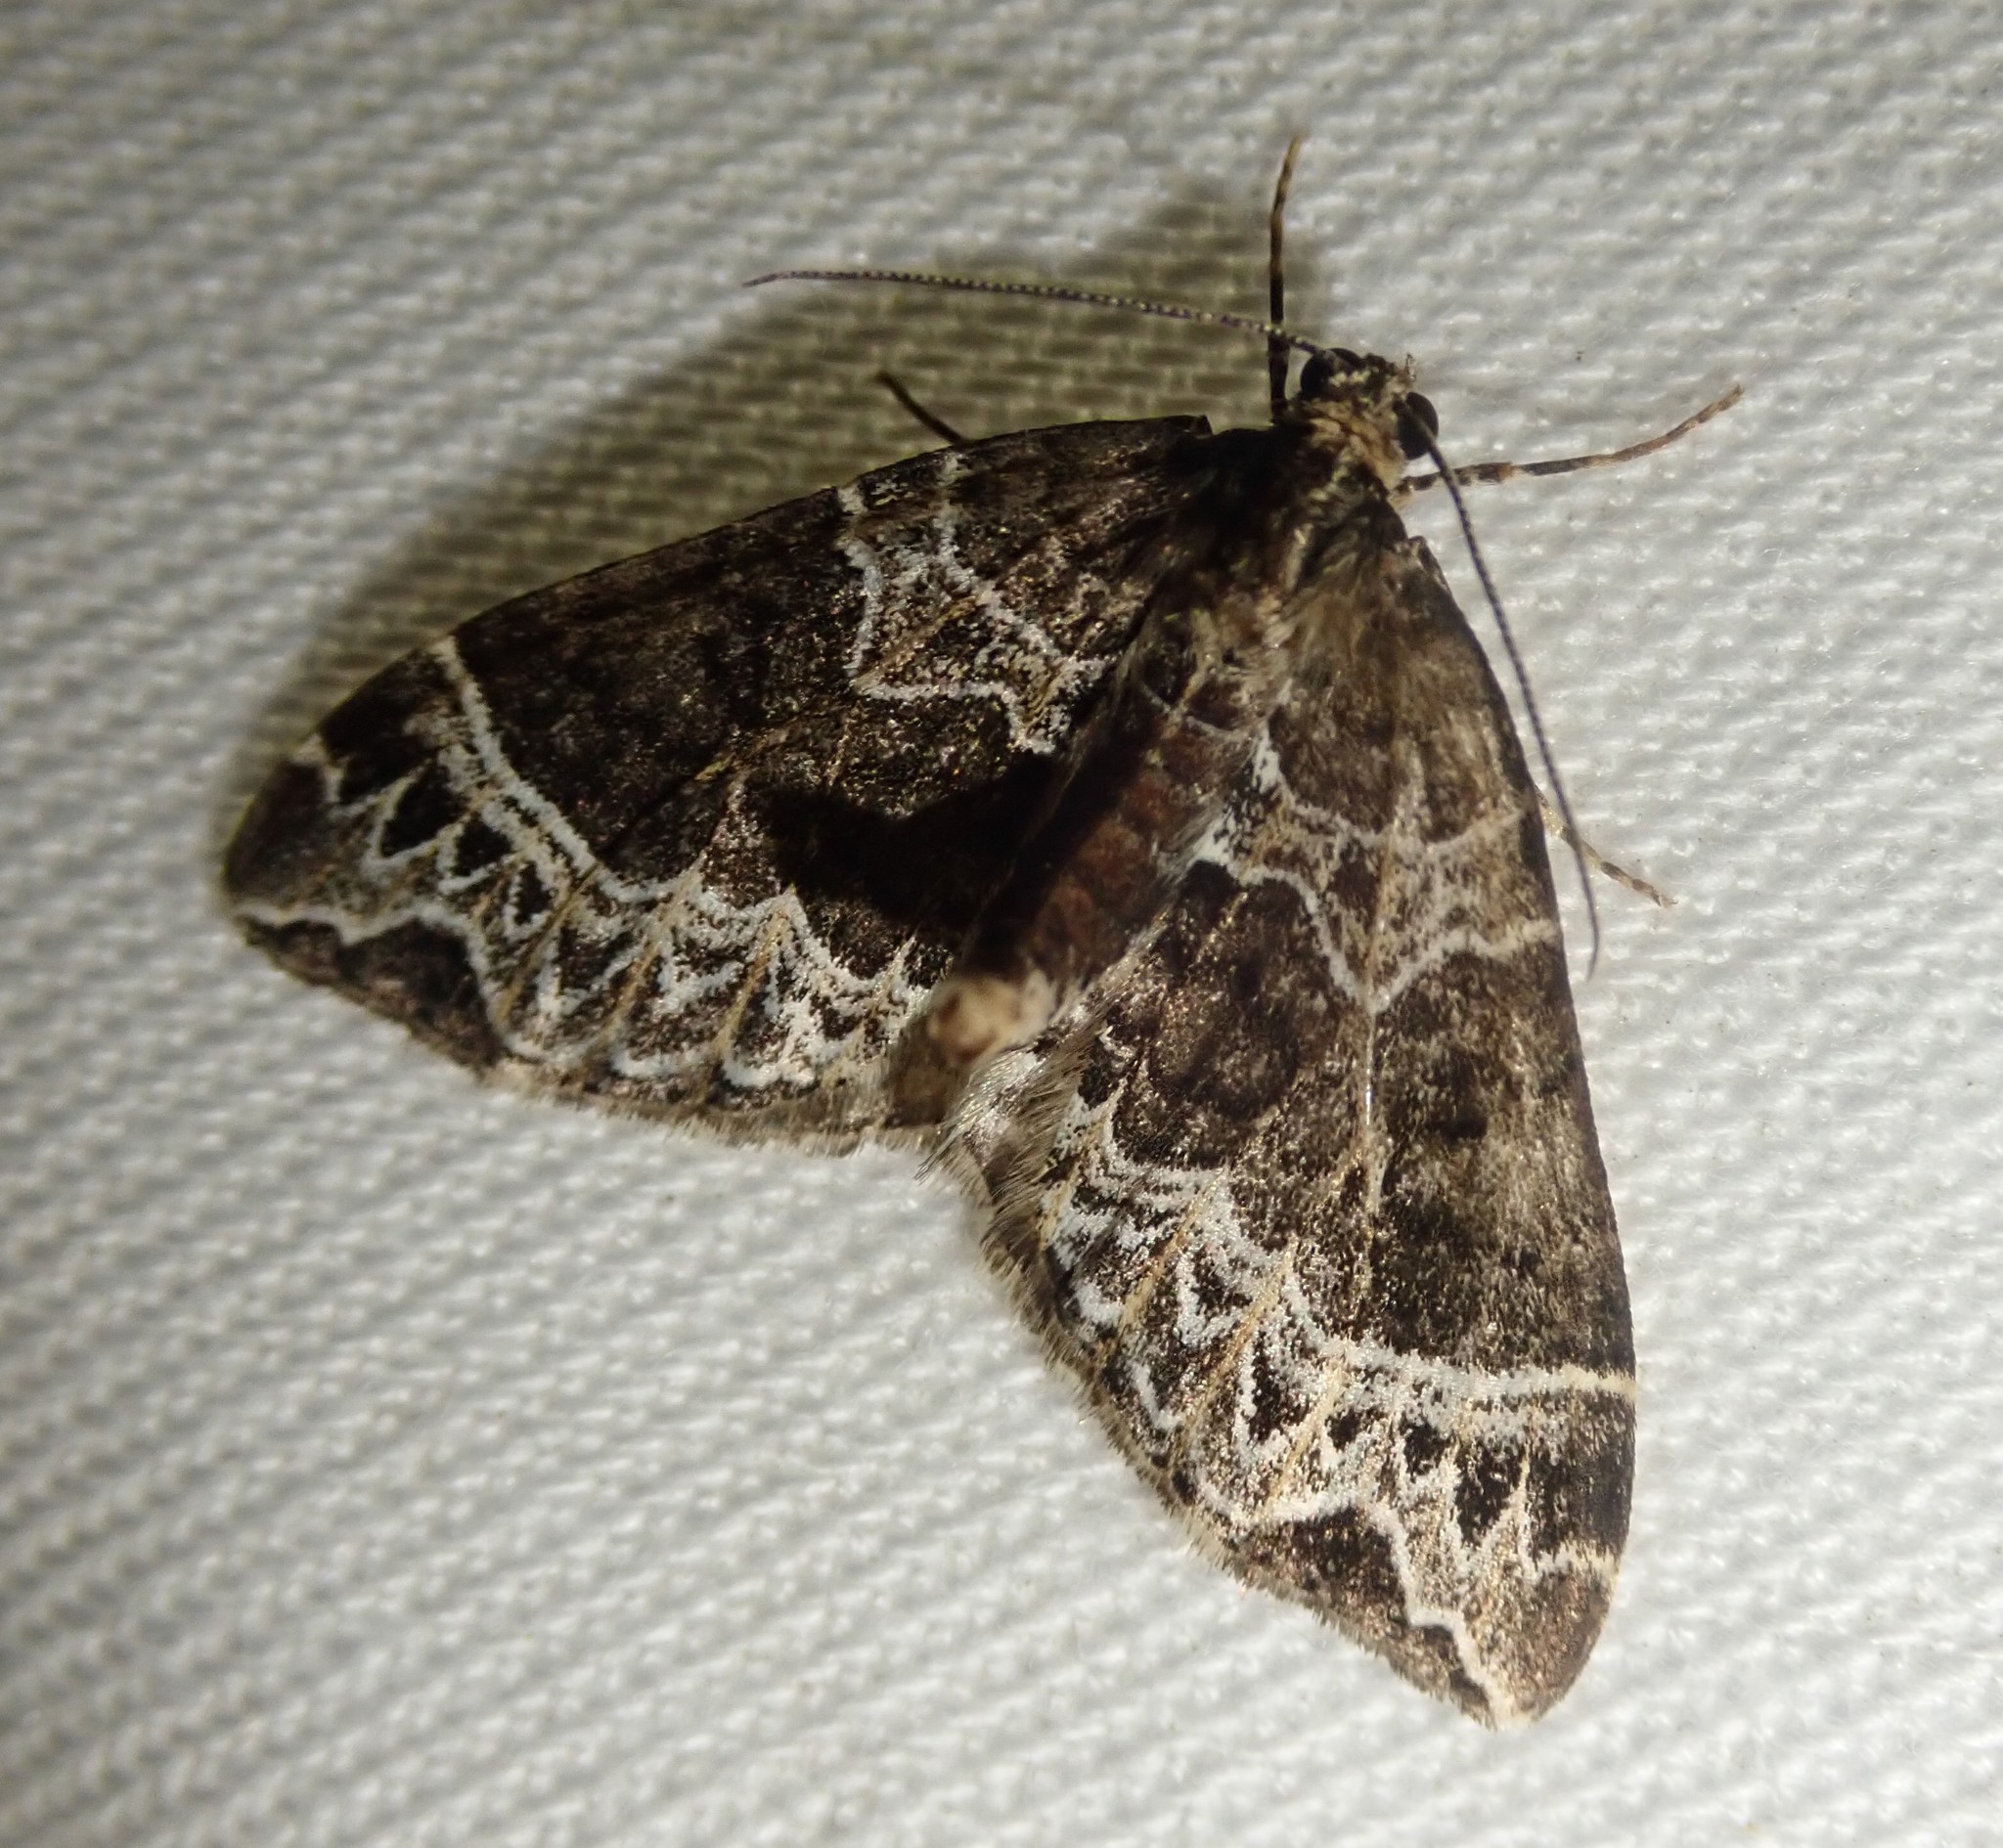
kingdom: Animalia
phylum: Arthropoda
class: Insecta
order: Lepidoptera
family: Geometridae
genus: Ecliptopera
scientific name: Ecliptopera silaceata
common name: Small phoenix
